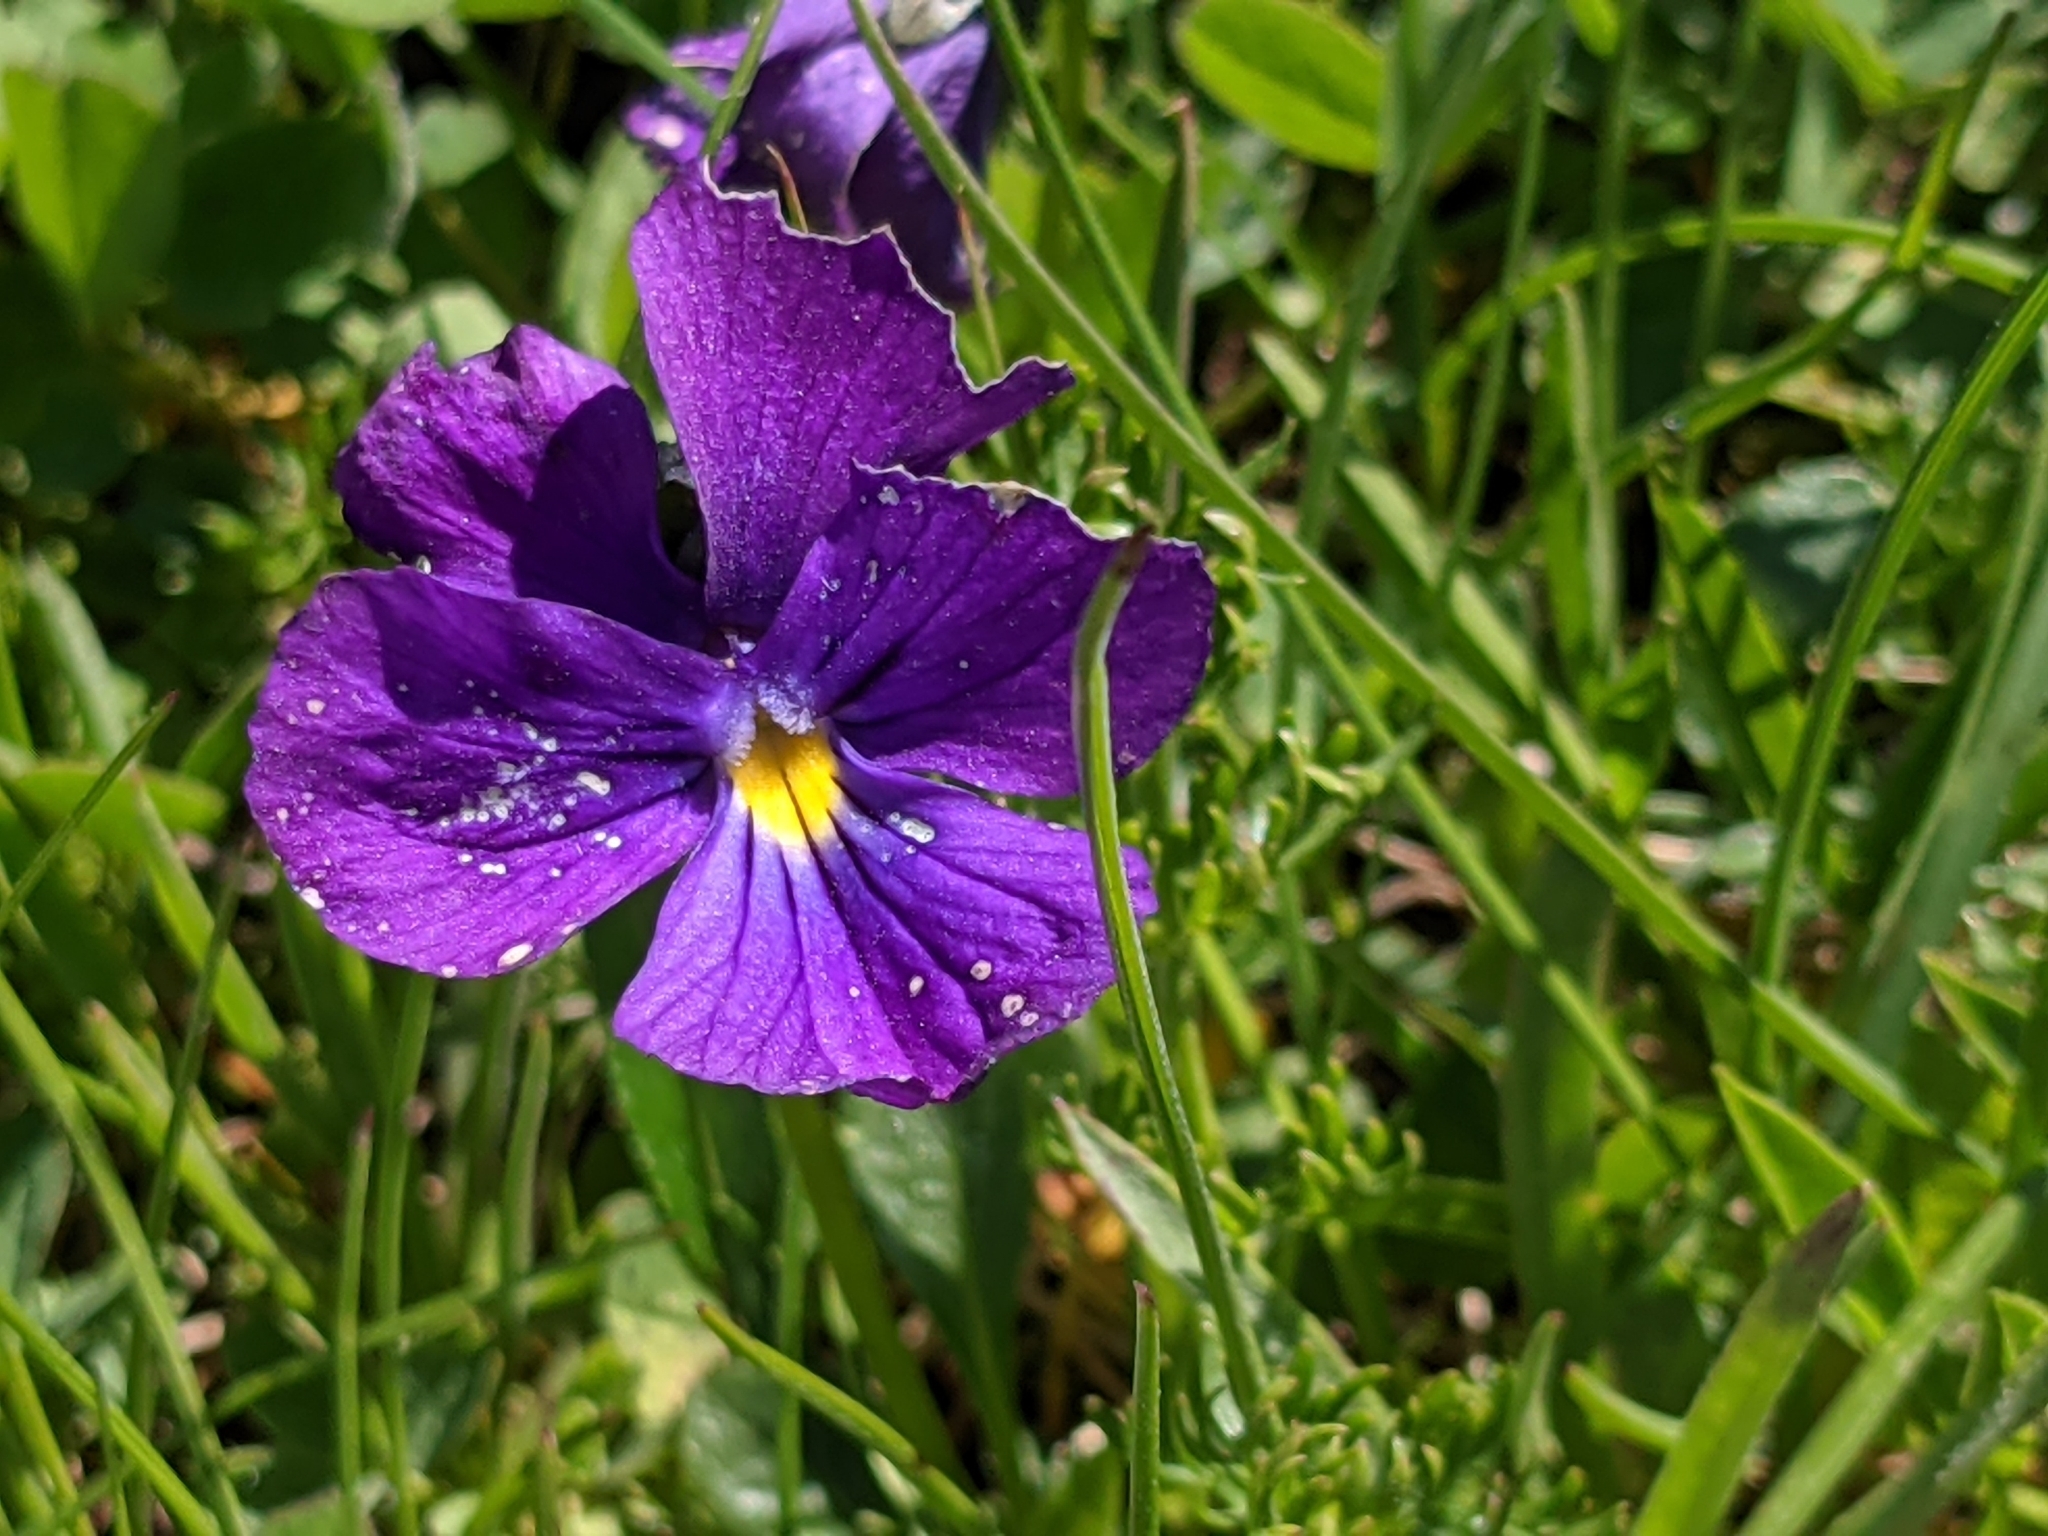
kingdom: Plantae
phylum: Tracheophyta
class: Magnoliopsida
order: Malpighiales
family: Violaceae
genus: Viola
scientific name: Viola calcarata
